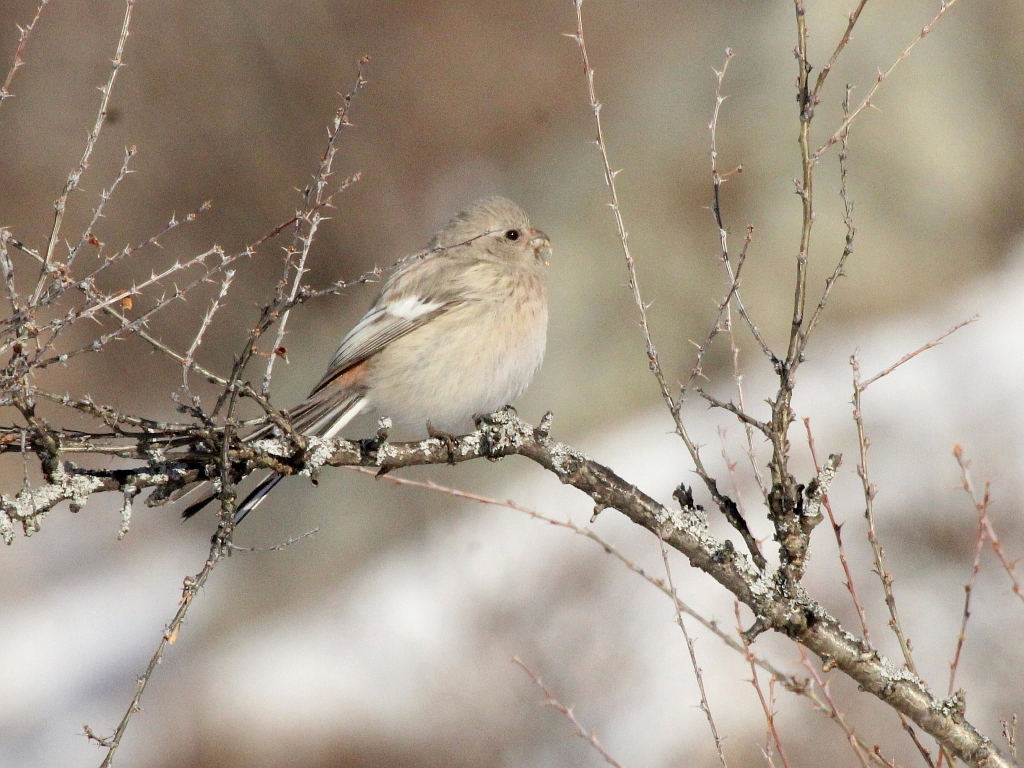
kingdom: Animalia
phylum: Chordata
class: Aves
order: Passeriformes
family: Fringillidae
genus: Carpodacus
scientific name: Carpodacus sibiricus
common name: Long-tailed rosefinch
